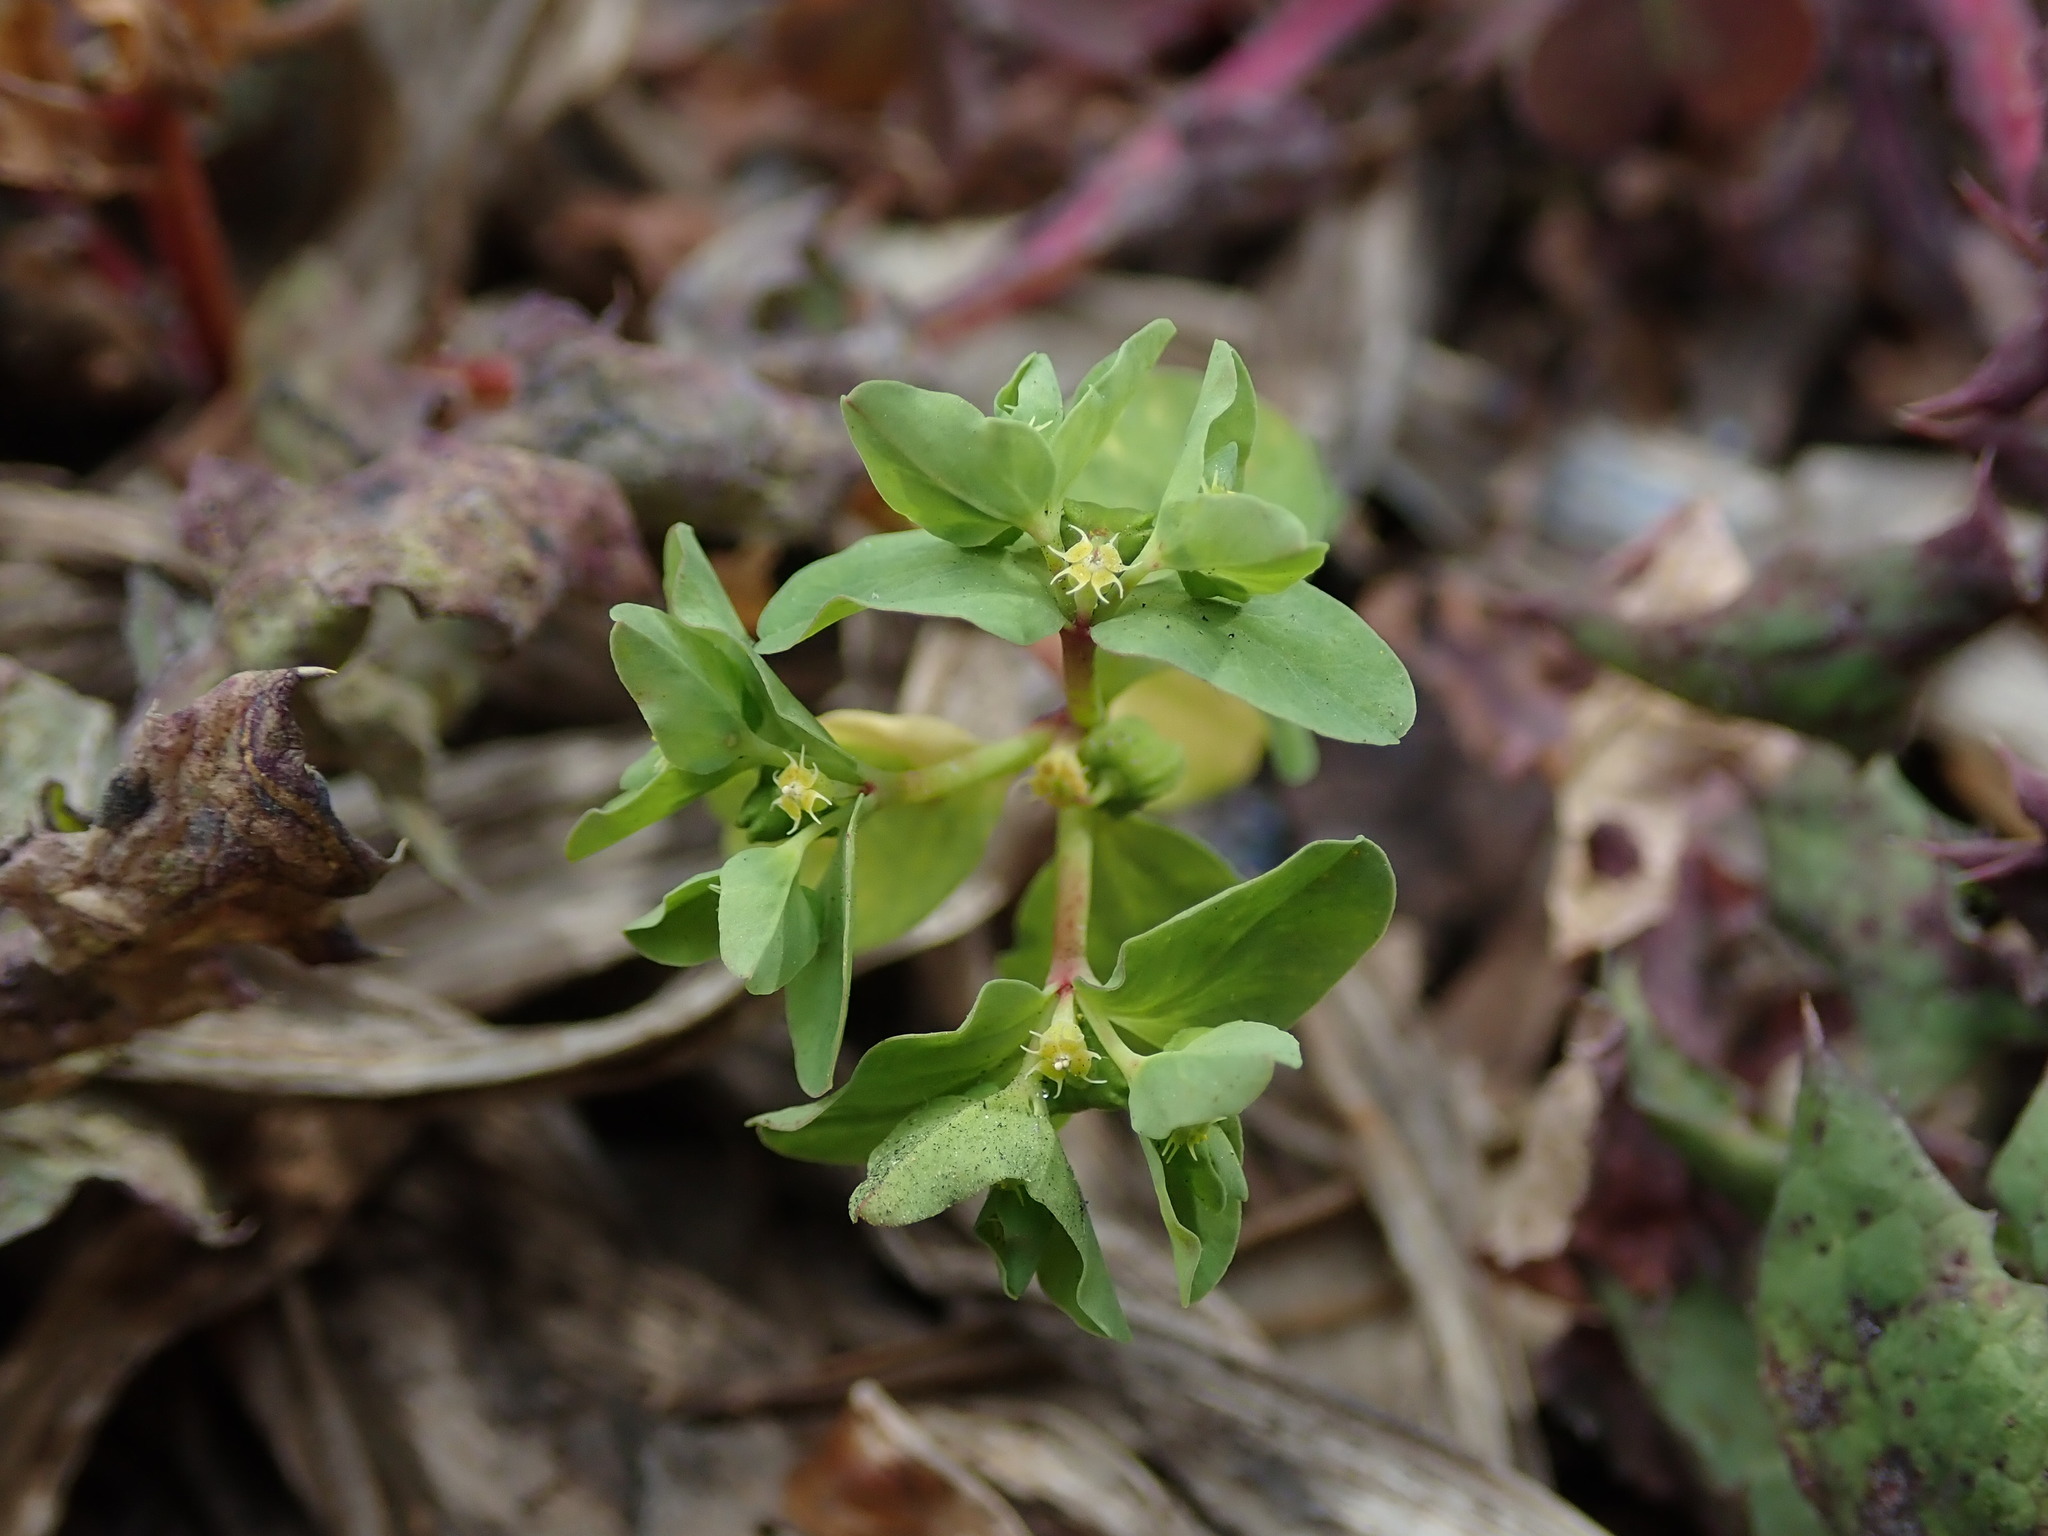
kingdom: Plantae
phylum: Tracheophyta
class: Magnoliopsida
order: Malpighiales
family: Euphorbiaceae
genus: Euphorbia
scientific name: Euphorbia peplus
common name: Petty spurge
